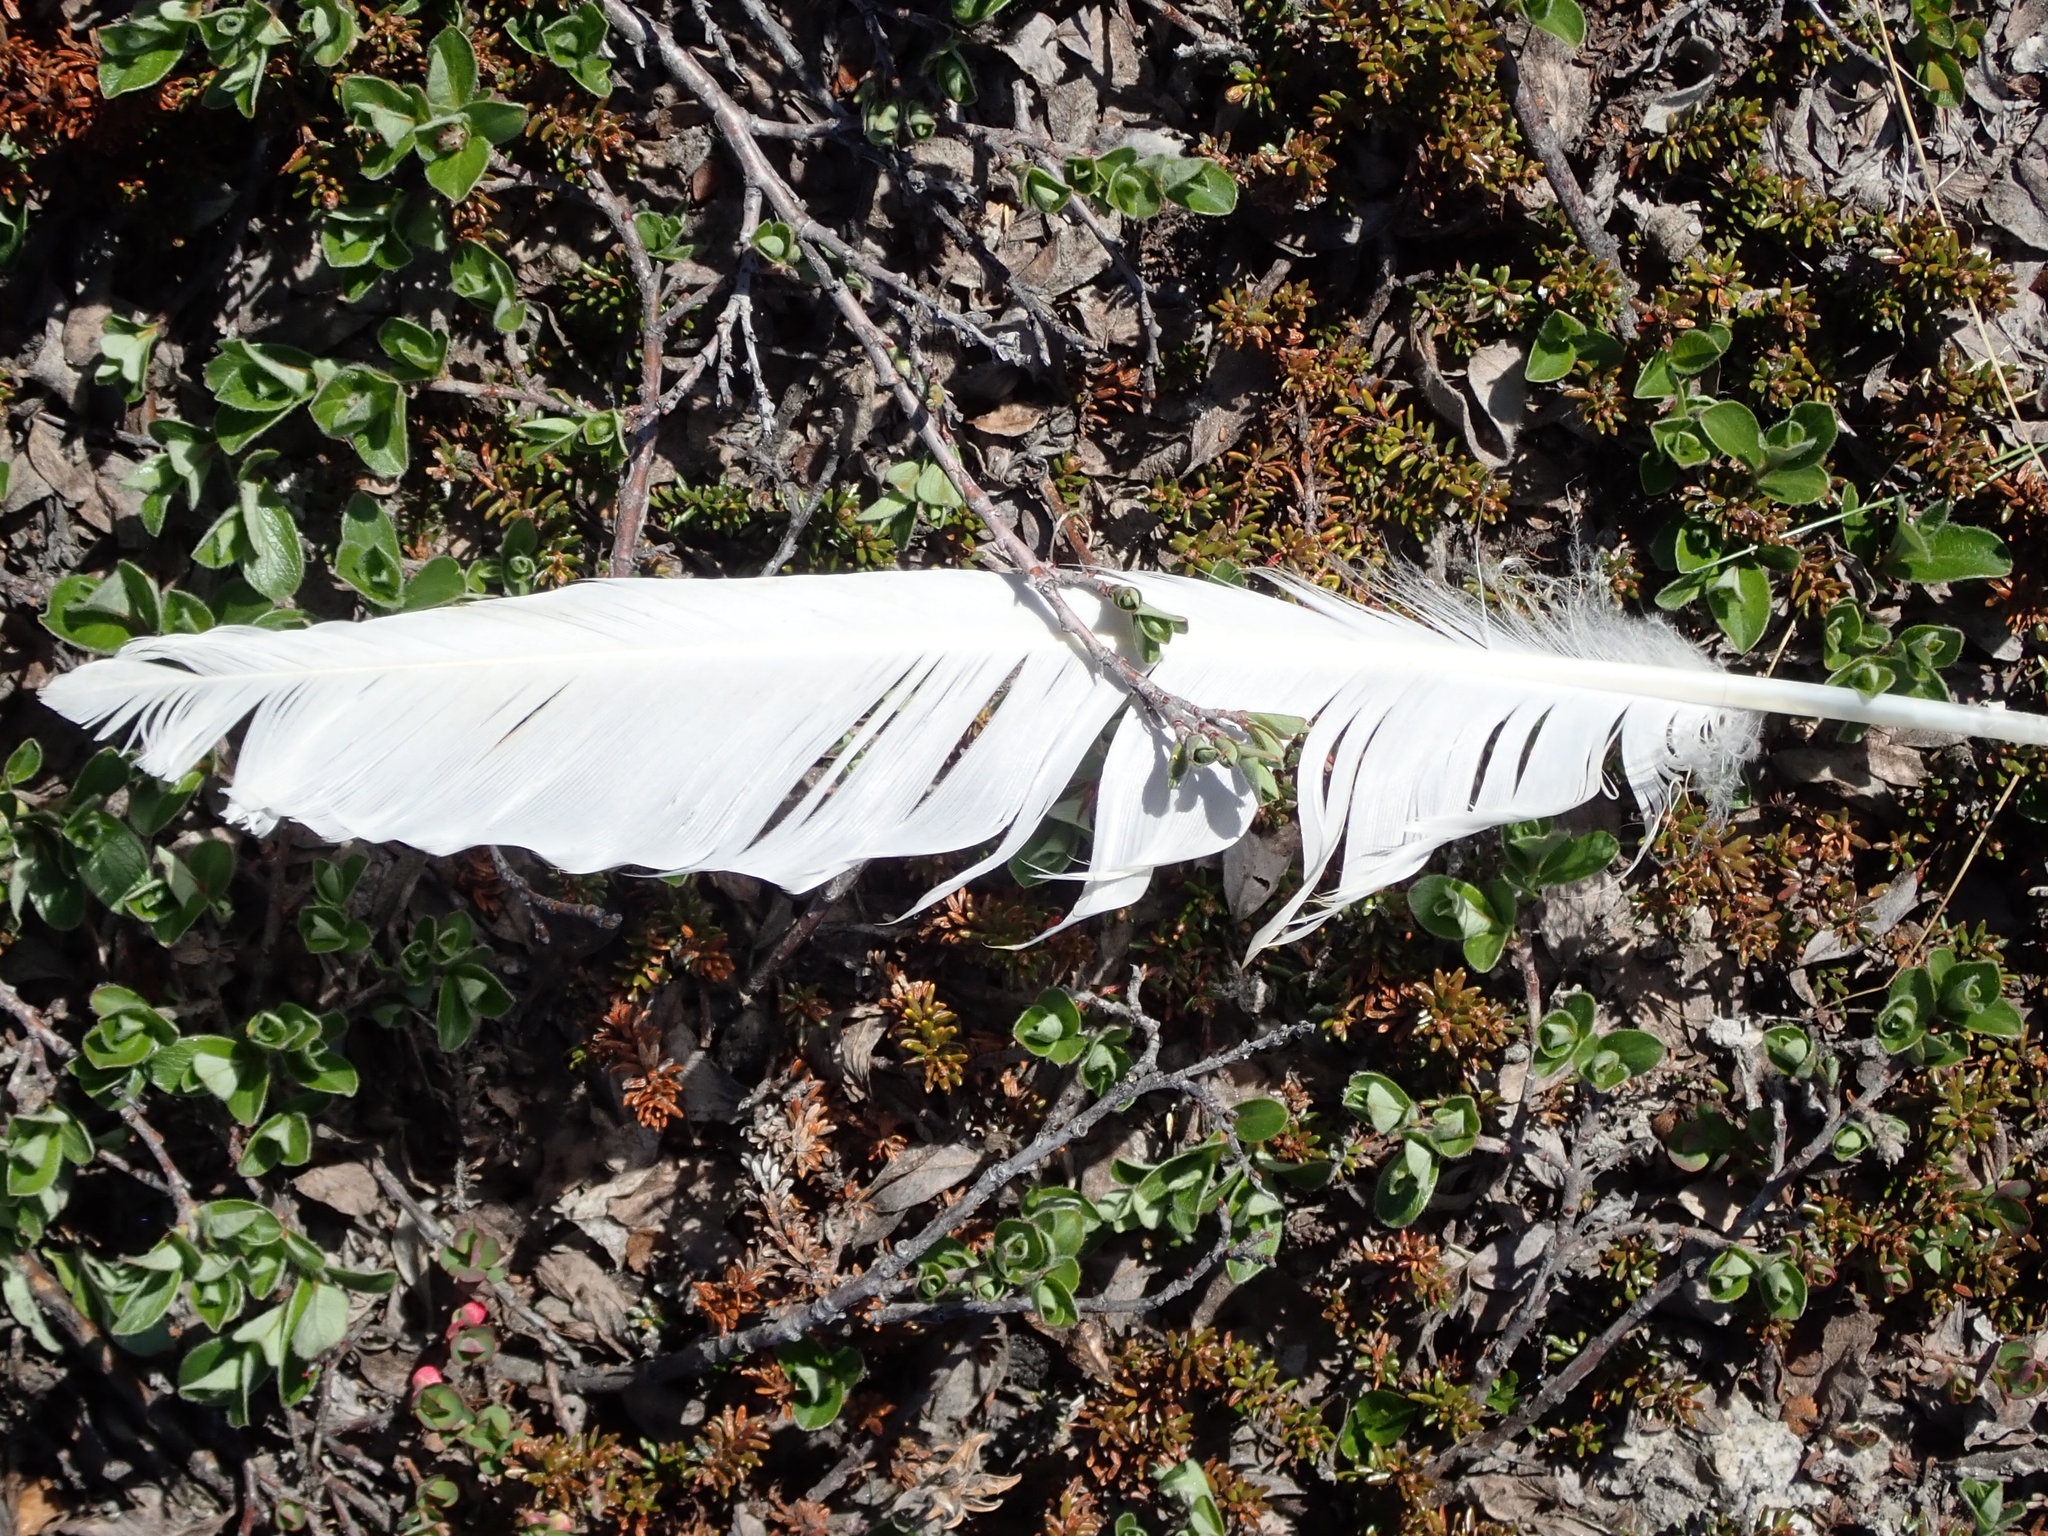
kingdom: Animalia
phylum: Chordata
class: Aves
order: Charadriiformes
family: Laridae
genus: Pagophila
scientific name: Pagophila eburnea
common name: Ivory gull
